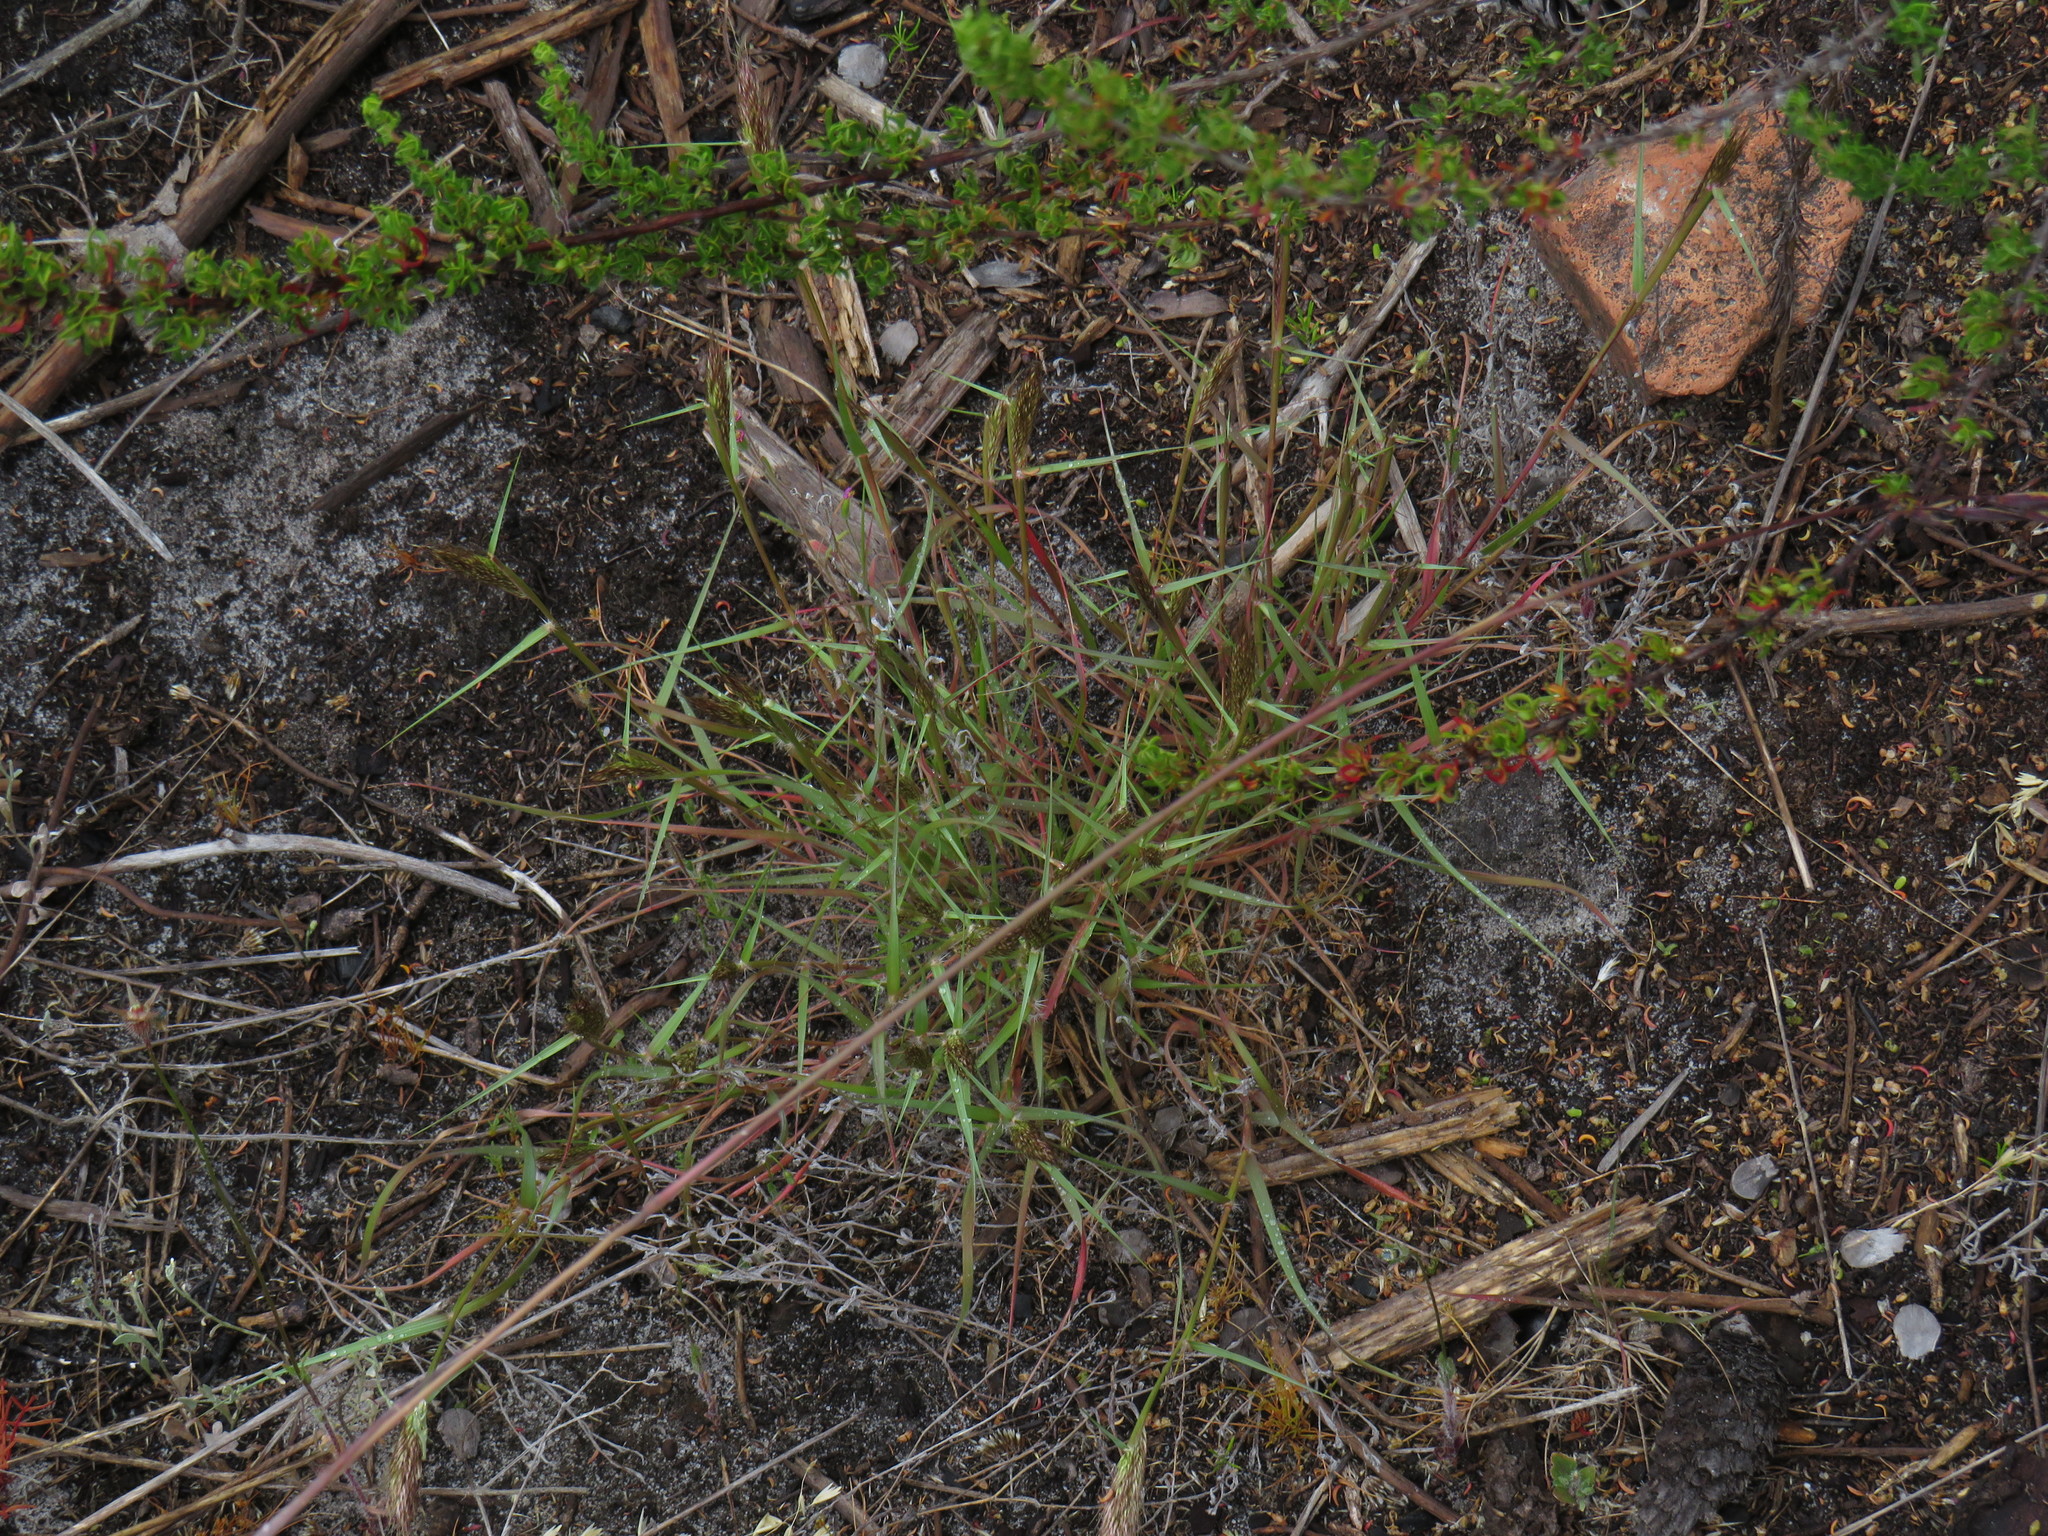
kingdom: Plantae
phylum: Tracheophyta
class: Liliopsida
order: Poales
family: Poaceae
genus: Pentameris
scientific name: Pentameris airoides
